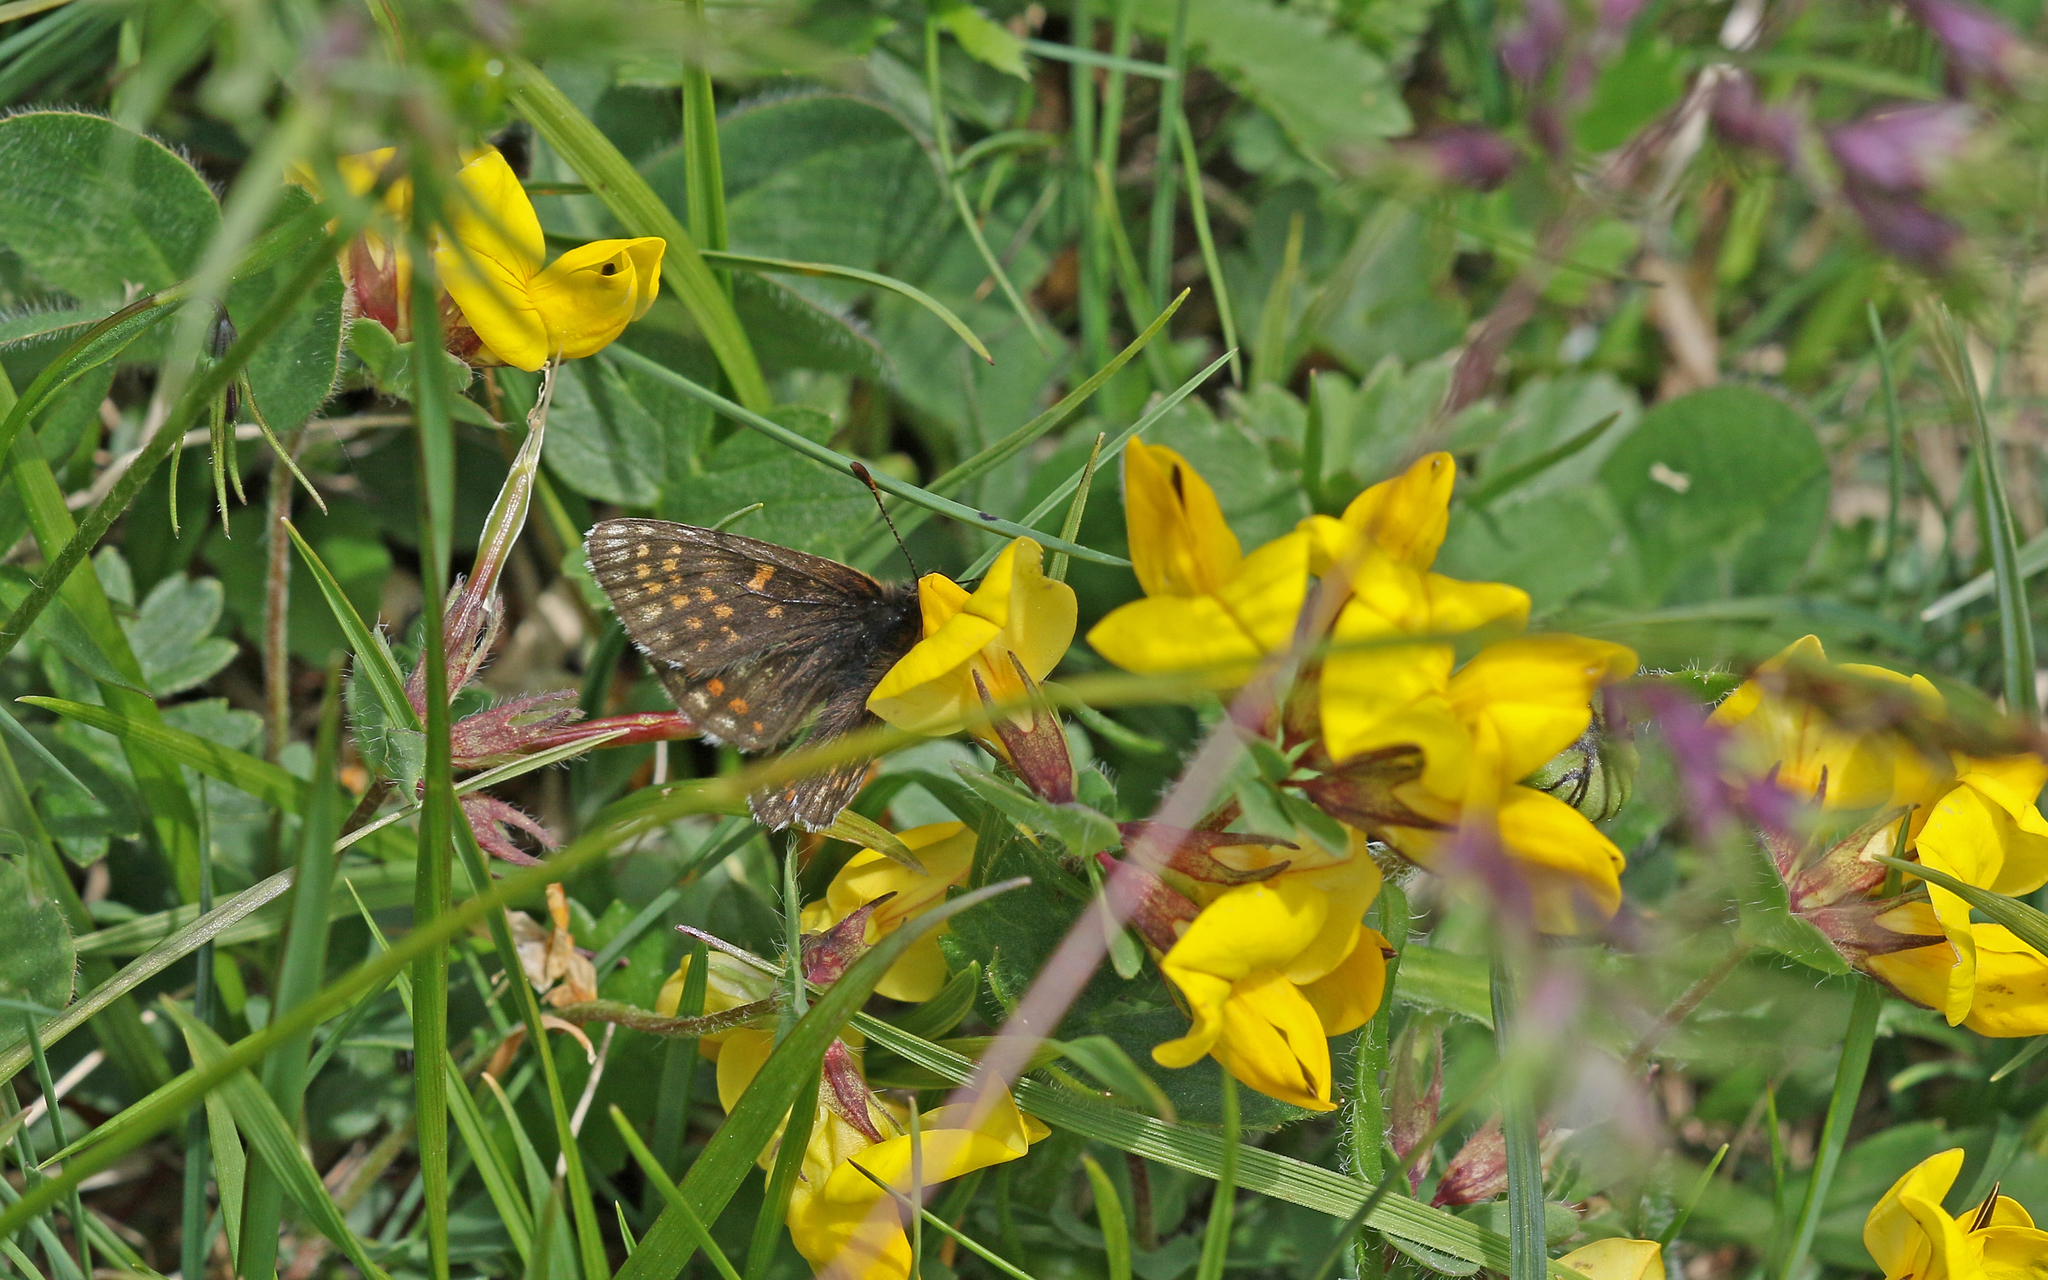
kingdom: Animalia
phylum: Arthropoda
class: Insecta
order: Lepidoptera
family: Nymphalidae
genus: Mellicta
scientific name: Mellicta asteria
